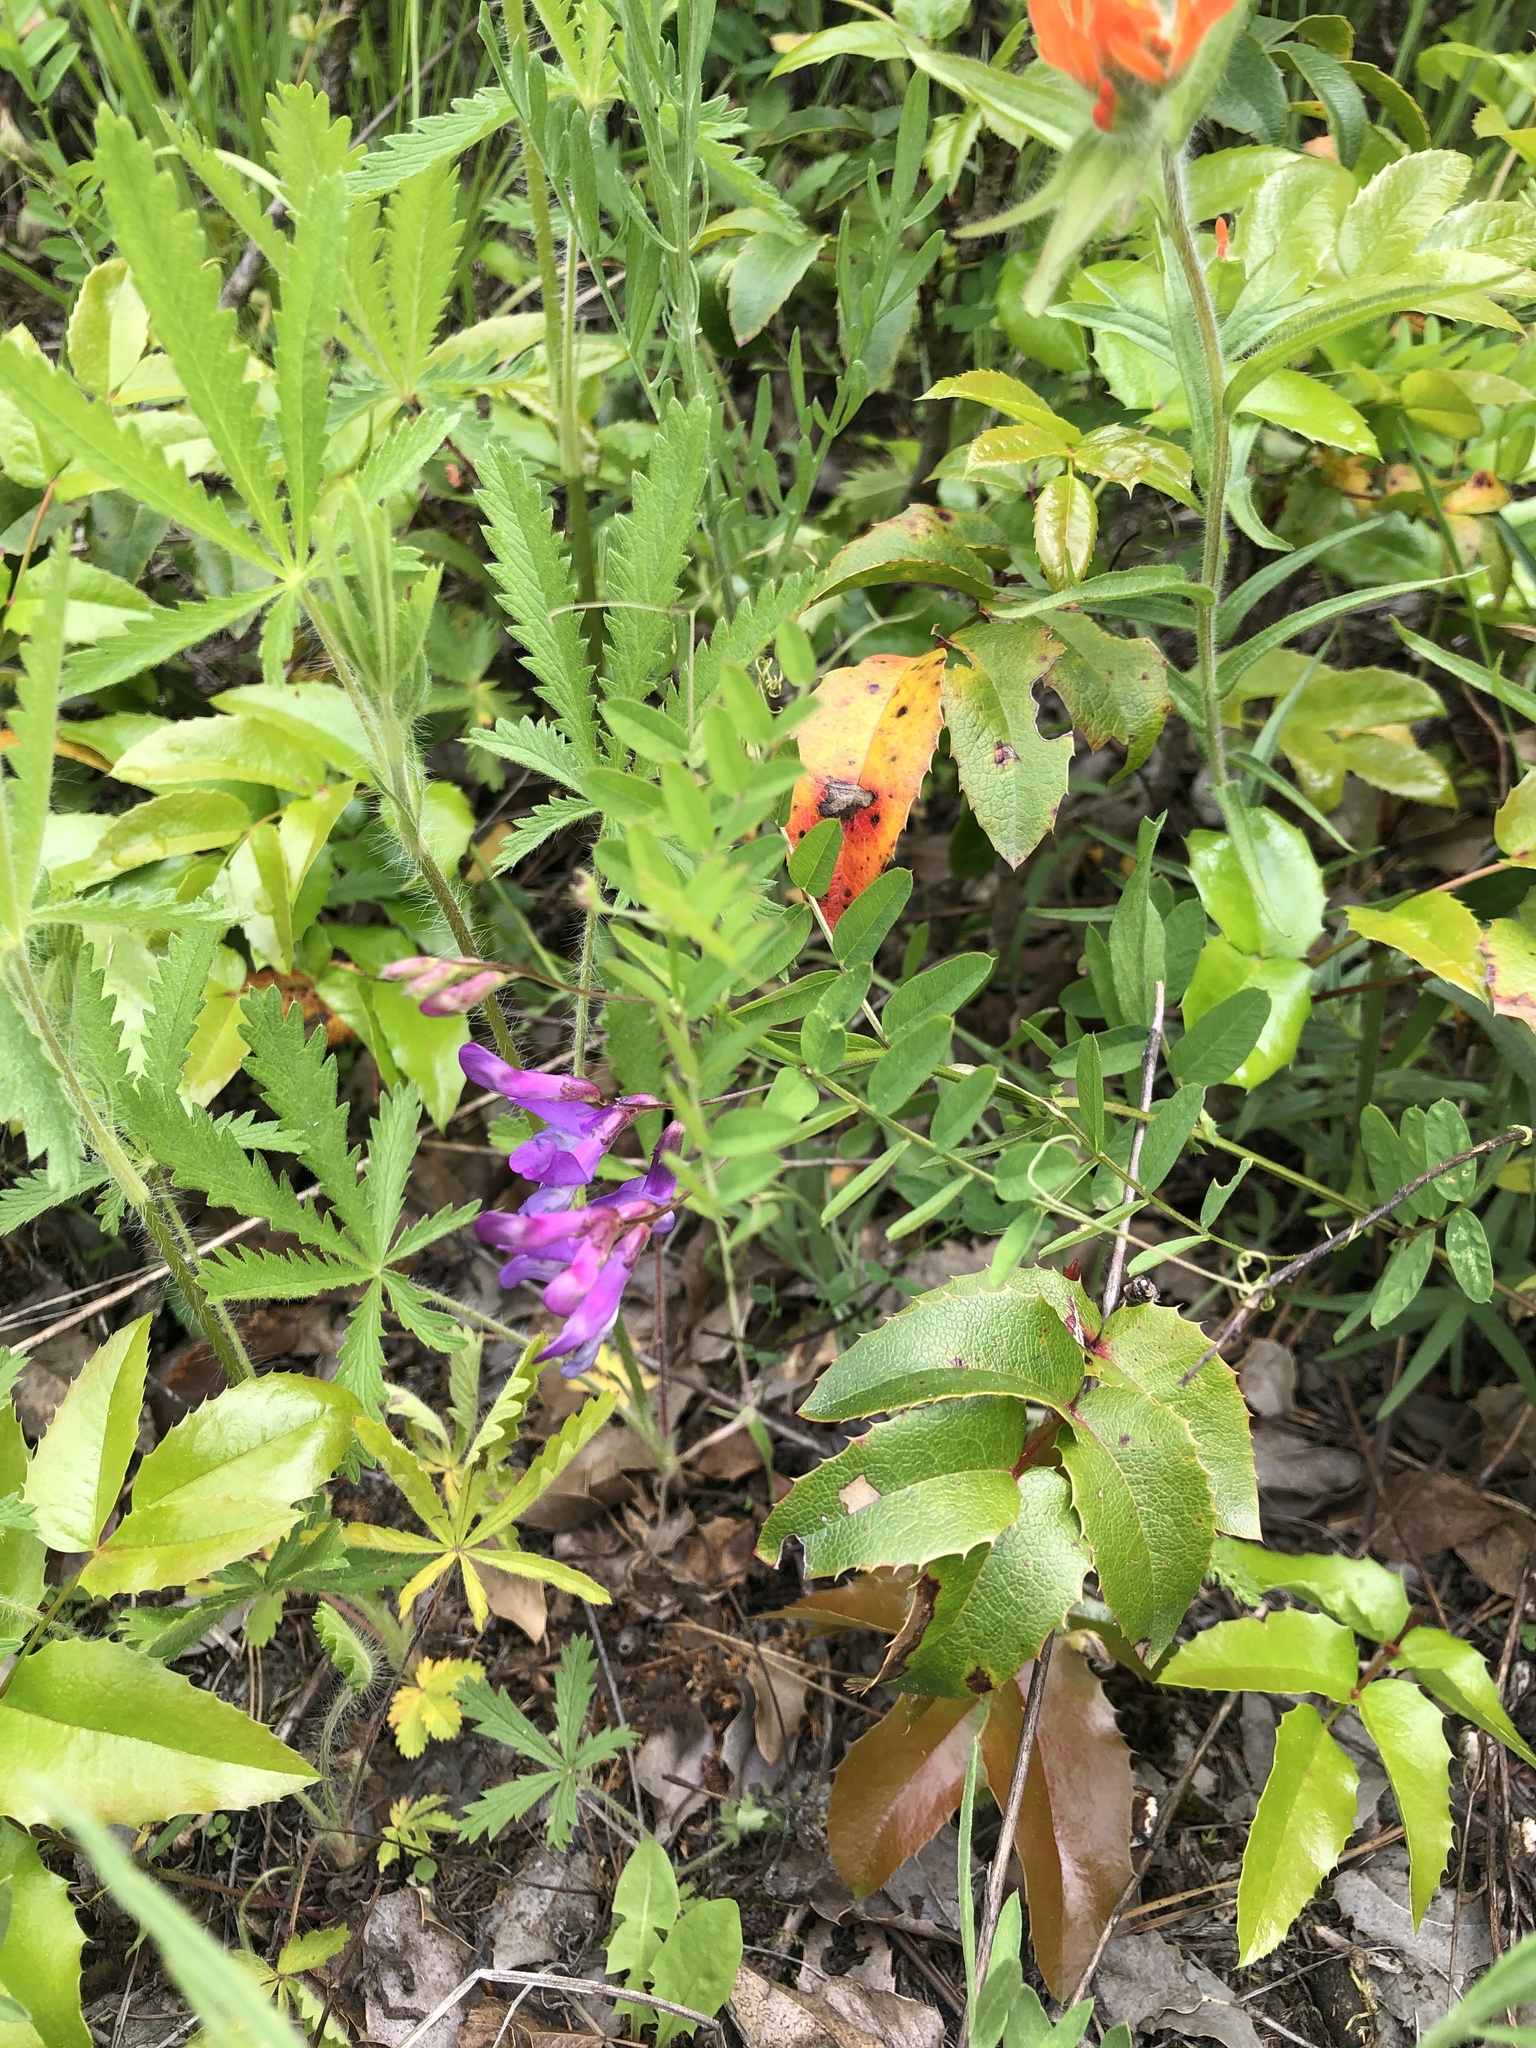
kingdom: Plantae
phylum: Tracheophyta
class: Magnoliopsida
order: Fabales
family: Fabaceae
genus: Vicia
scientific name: Vicia americana
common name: American vetch
